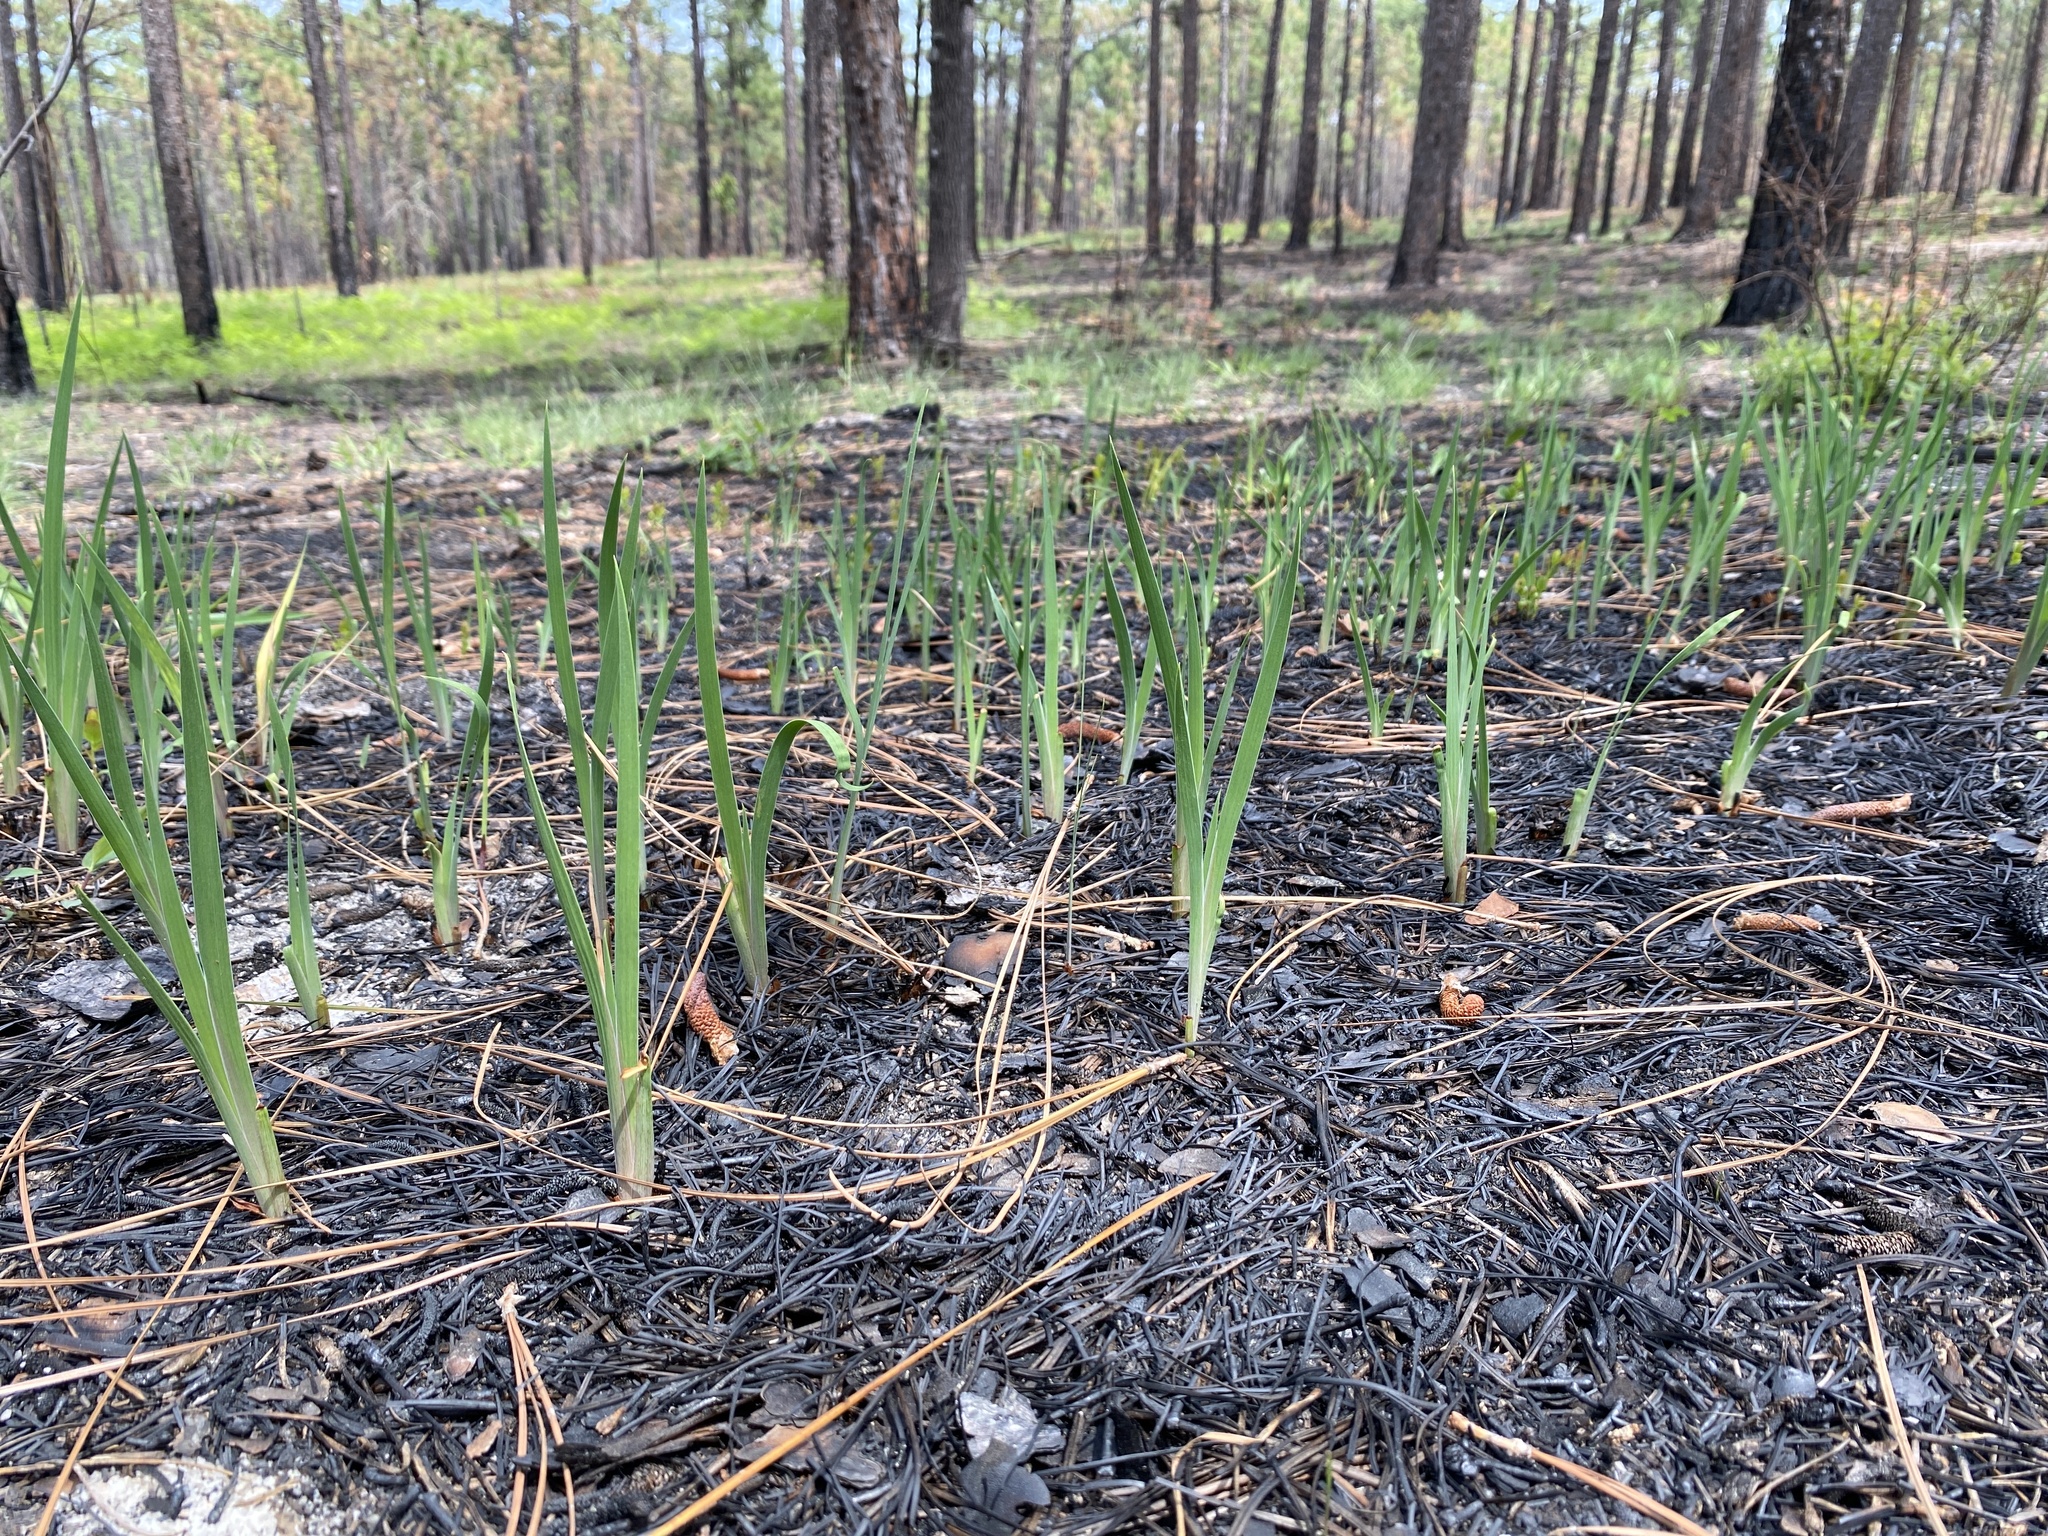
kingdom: Plantae
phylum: Tracheophyta
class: Liliopsida
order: Asparagales
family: Iridaceae
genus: Iris
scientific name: Iris verna
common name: Dwarf iris
